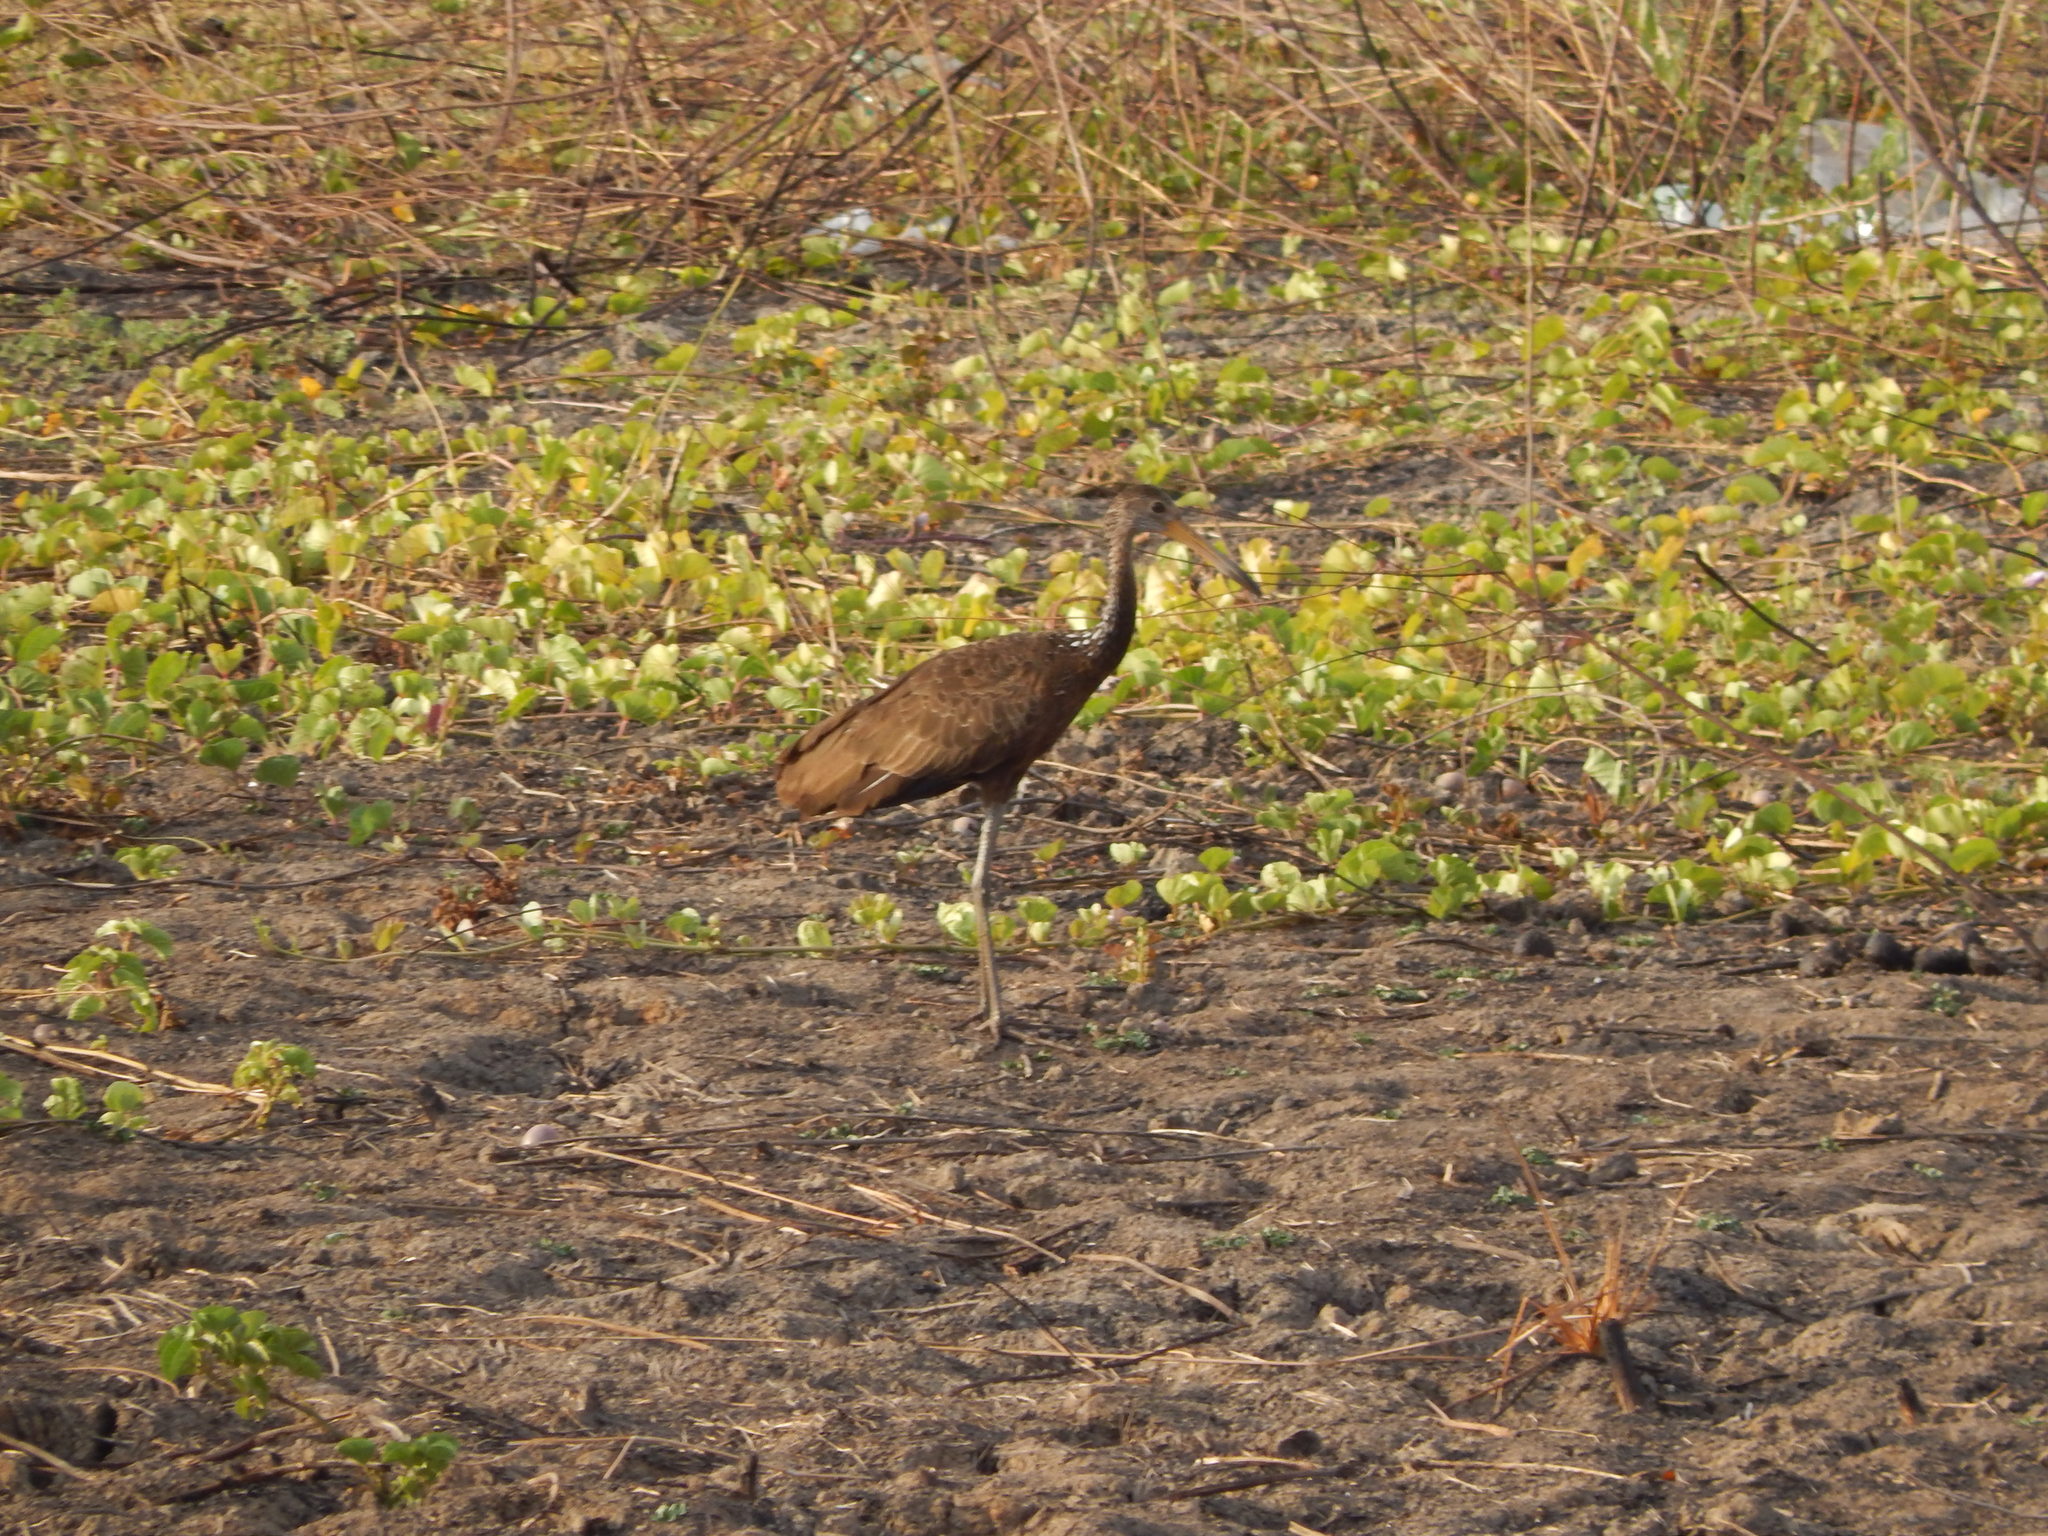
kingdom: Animalia
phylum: Chordata
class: Aves
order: Gruiformes
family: Aramidae
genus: Aramus
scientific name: Aramus guarauna
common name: Limpkin
